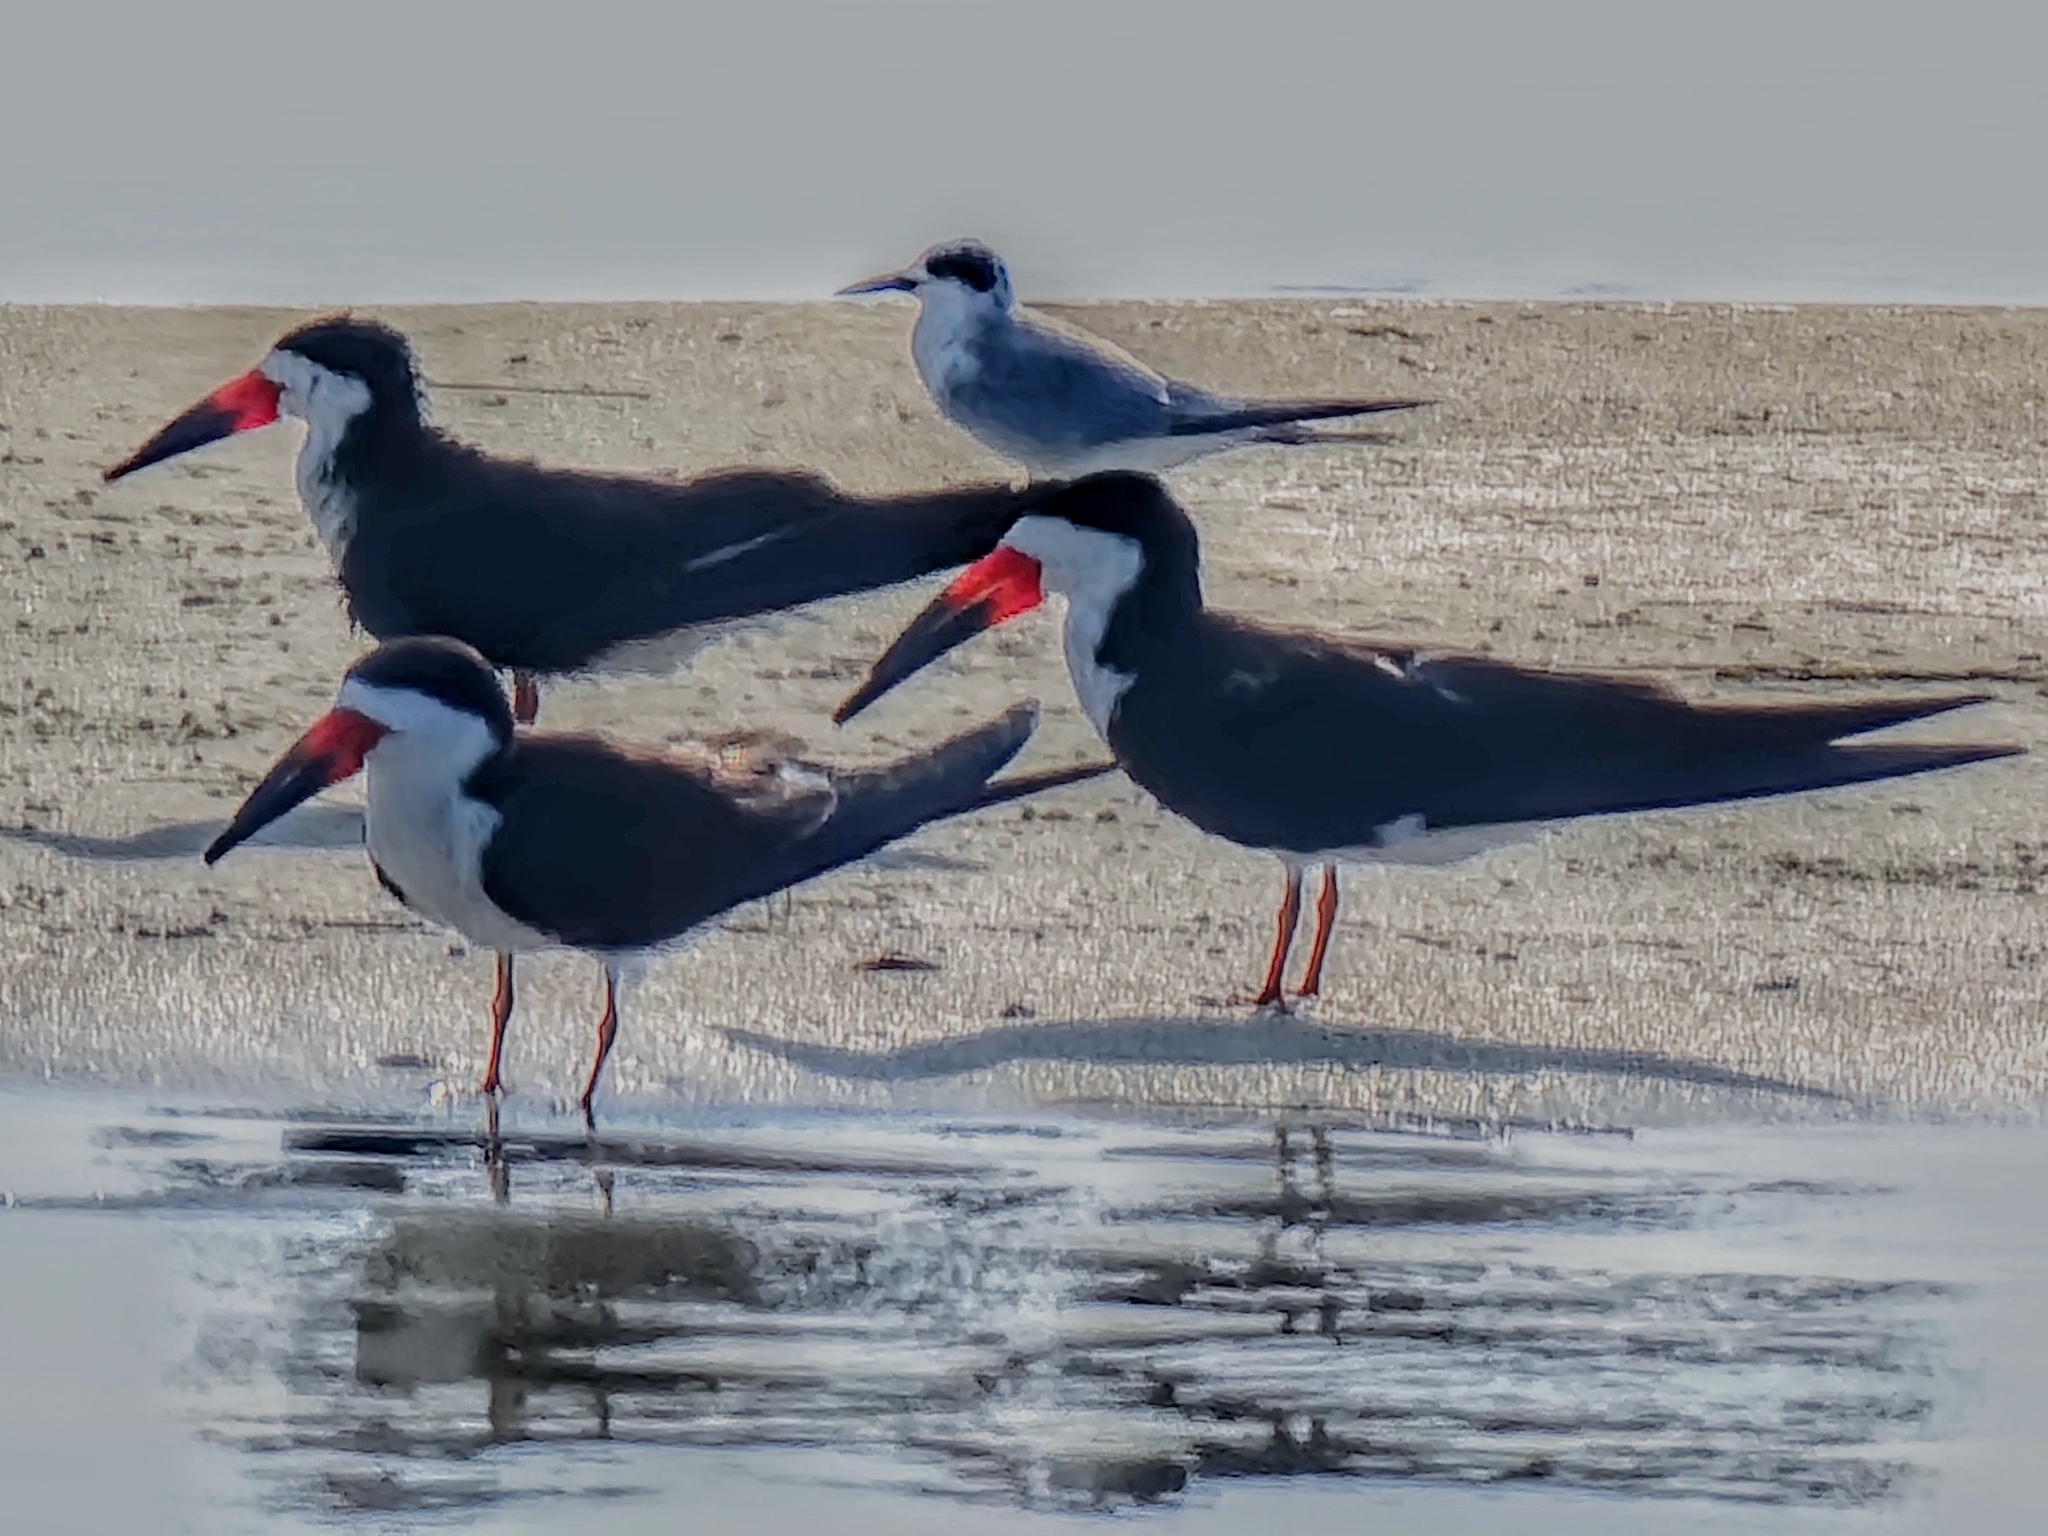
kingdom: Animalia
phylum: Chordata
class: Aves
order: Charadriiformes
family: Laridae
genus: Rynchops
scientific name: Rynchops niger
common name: Black skimmer
